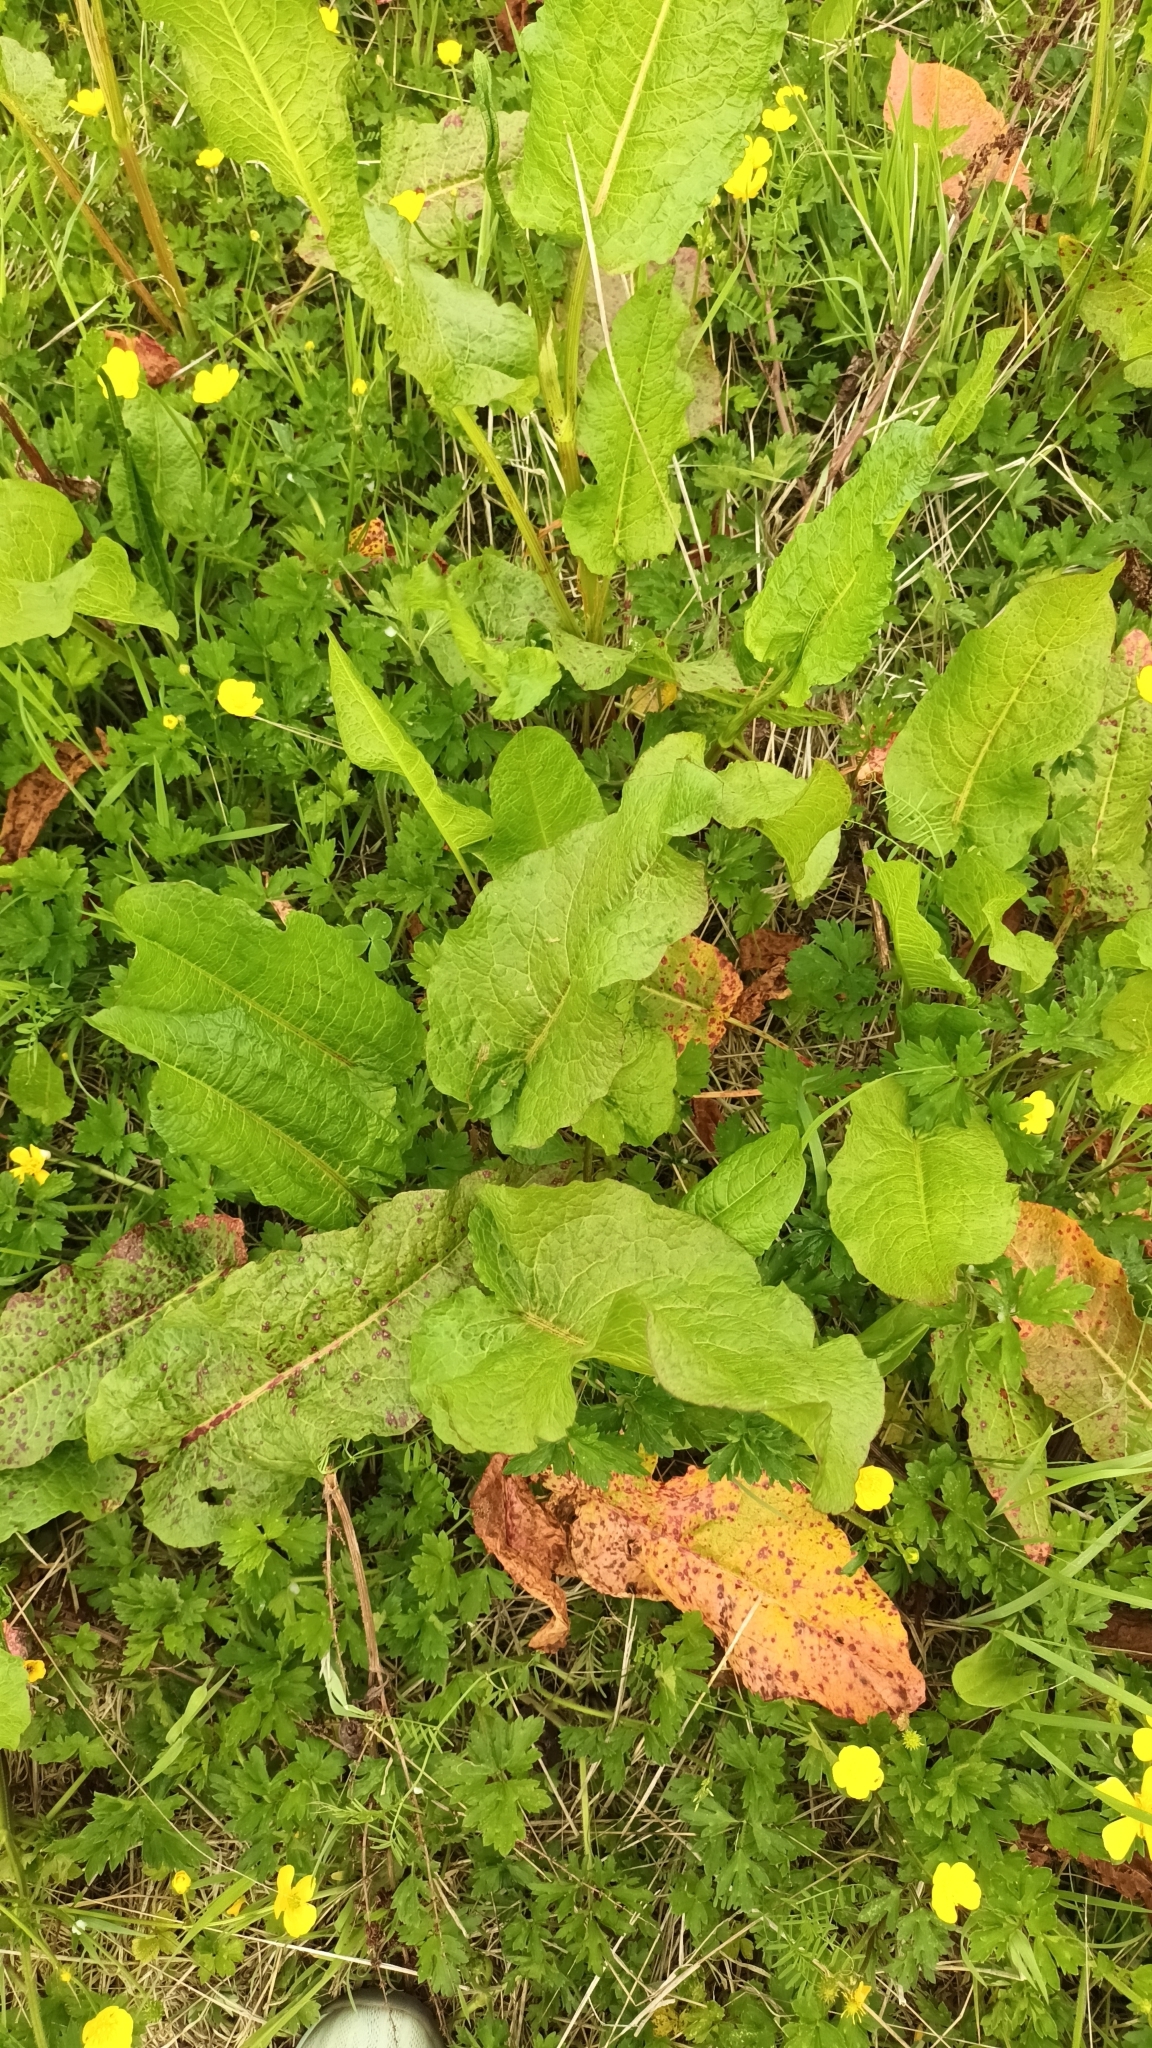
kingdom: Plantae
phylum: Tracheophyta
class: Magnoliopsida
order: Caryophyllales
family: Polygonaceae
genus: Rumex
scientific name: Rumex obtusifolius
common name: Bitter dock
